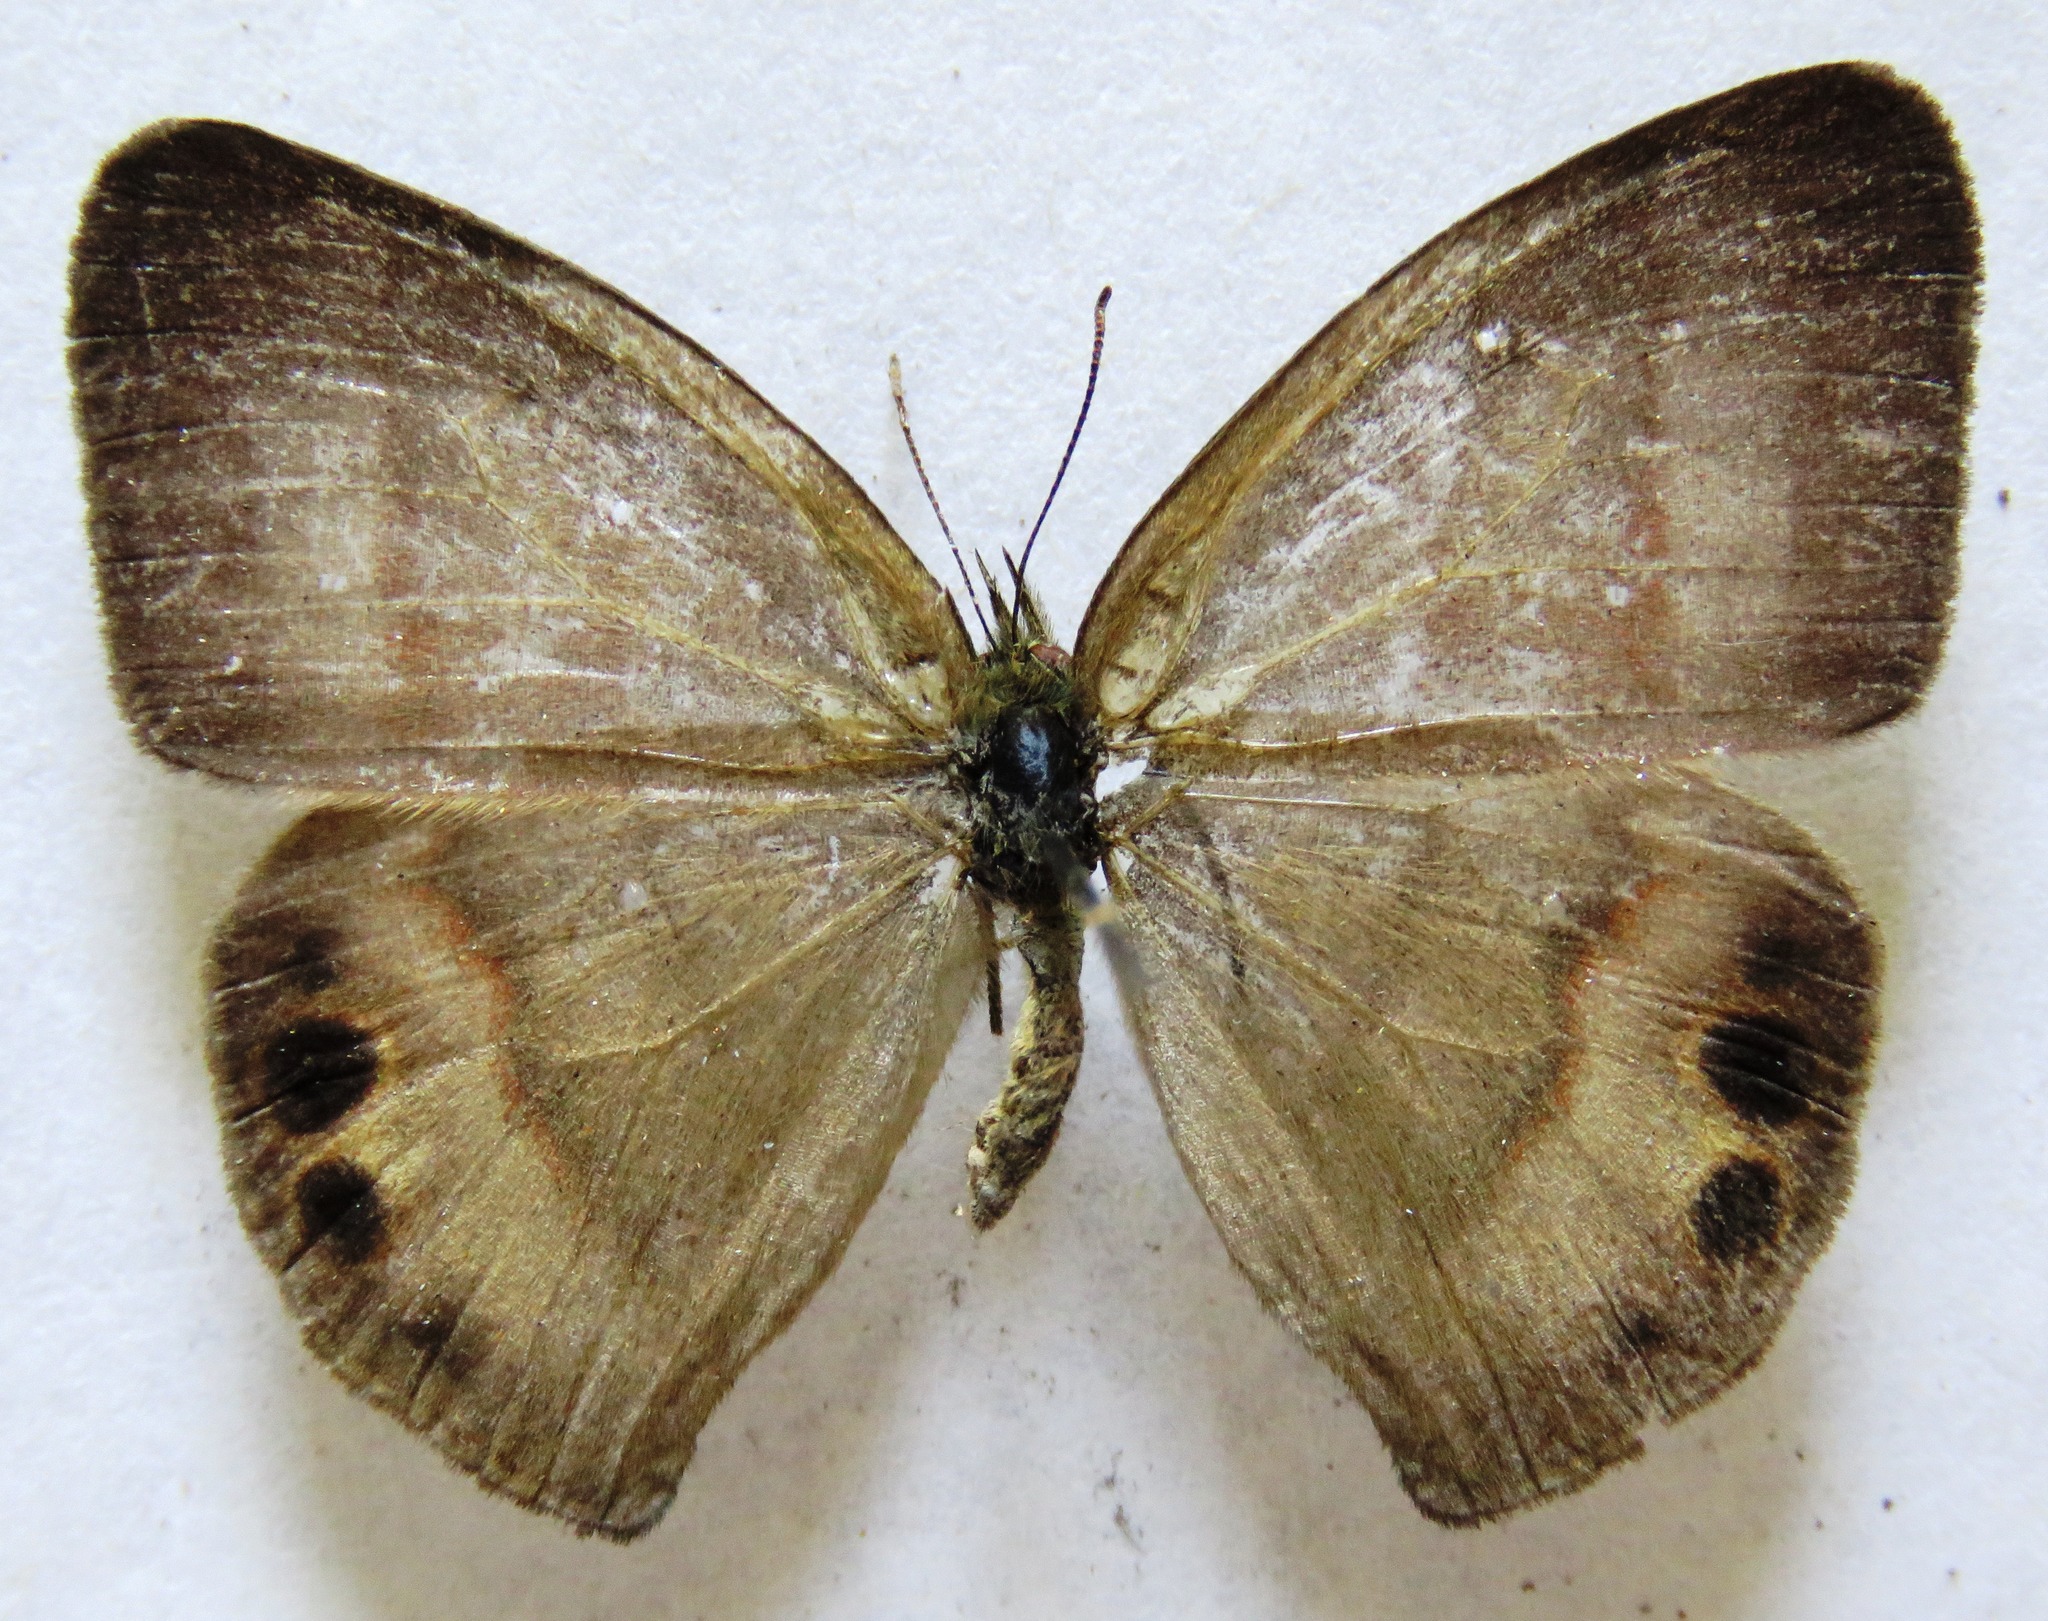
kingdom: Animalia
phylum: Arthropoda
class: Insecta
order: Lepidoptera
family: Nymphalidae
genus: Euptychia
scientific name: Euptychia
